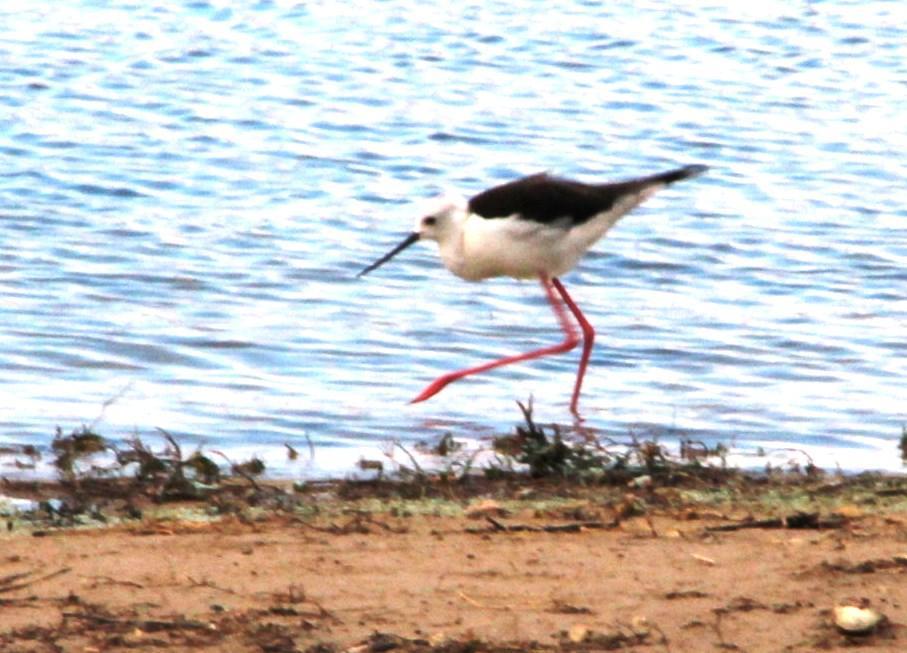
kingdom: Animalia
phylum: Chordata
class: Aves
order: Charadriiformes
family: Recurvirostridae
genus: Himantopus
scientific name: Himantopus himantopus
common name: Black-winged stilt
